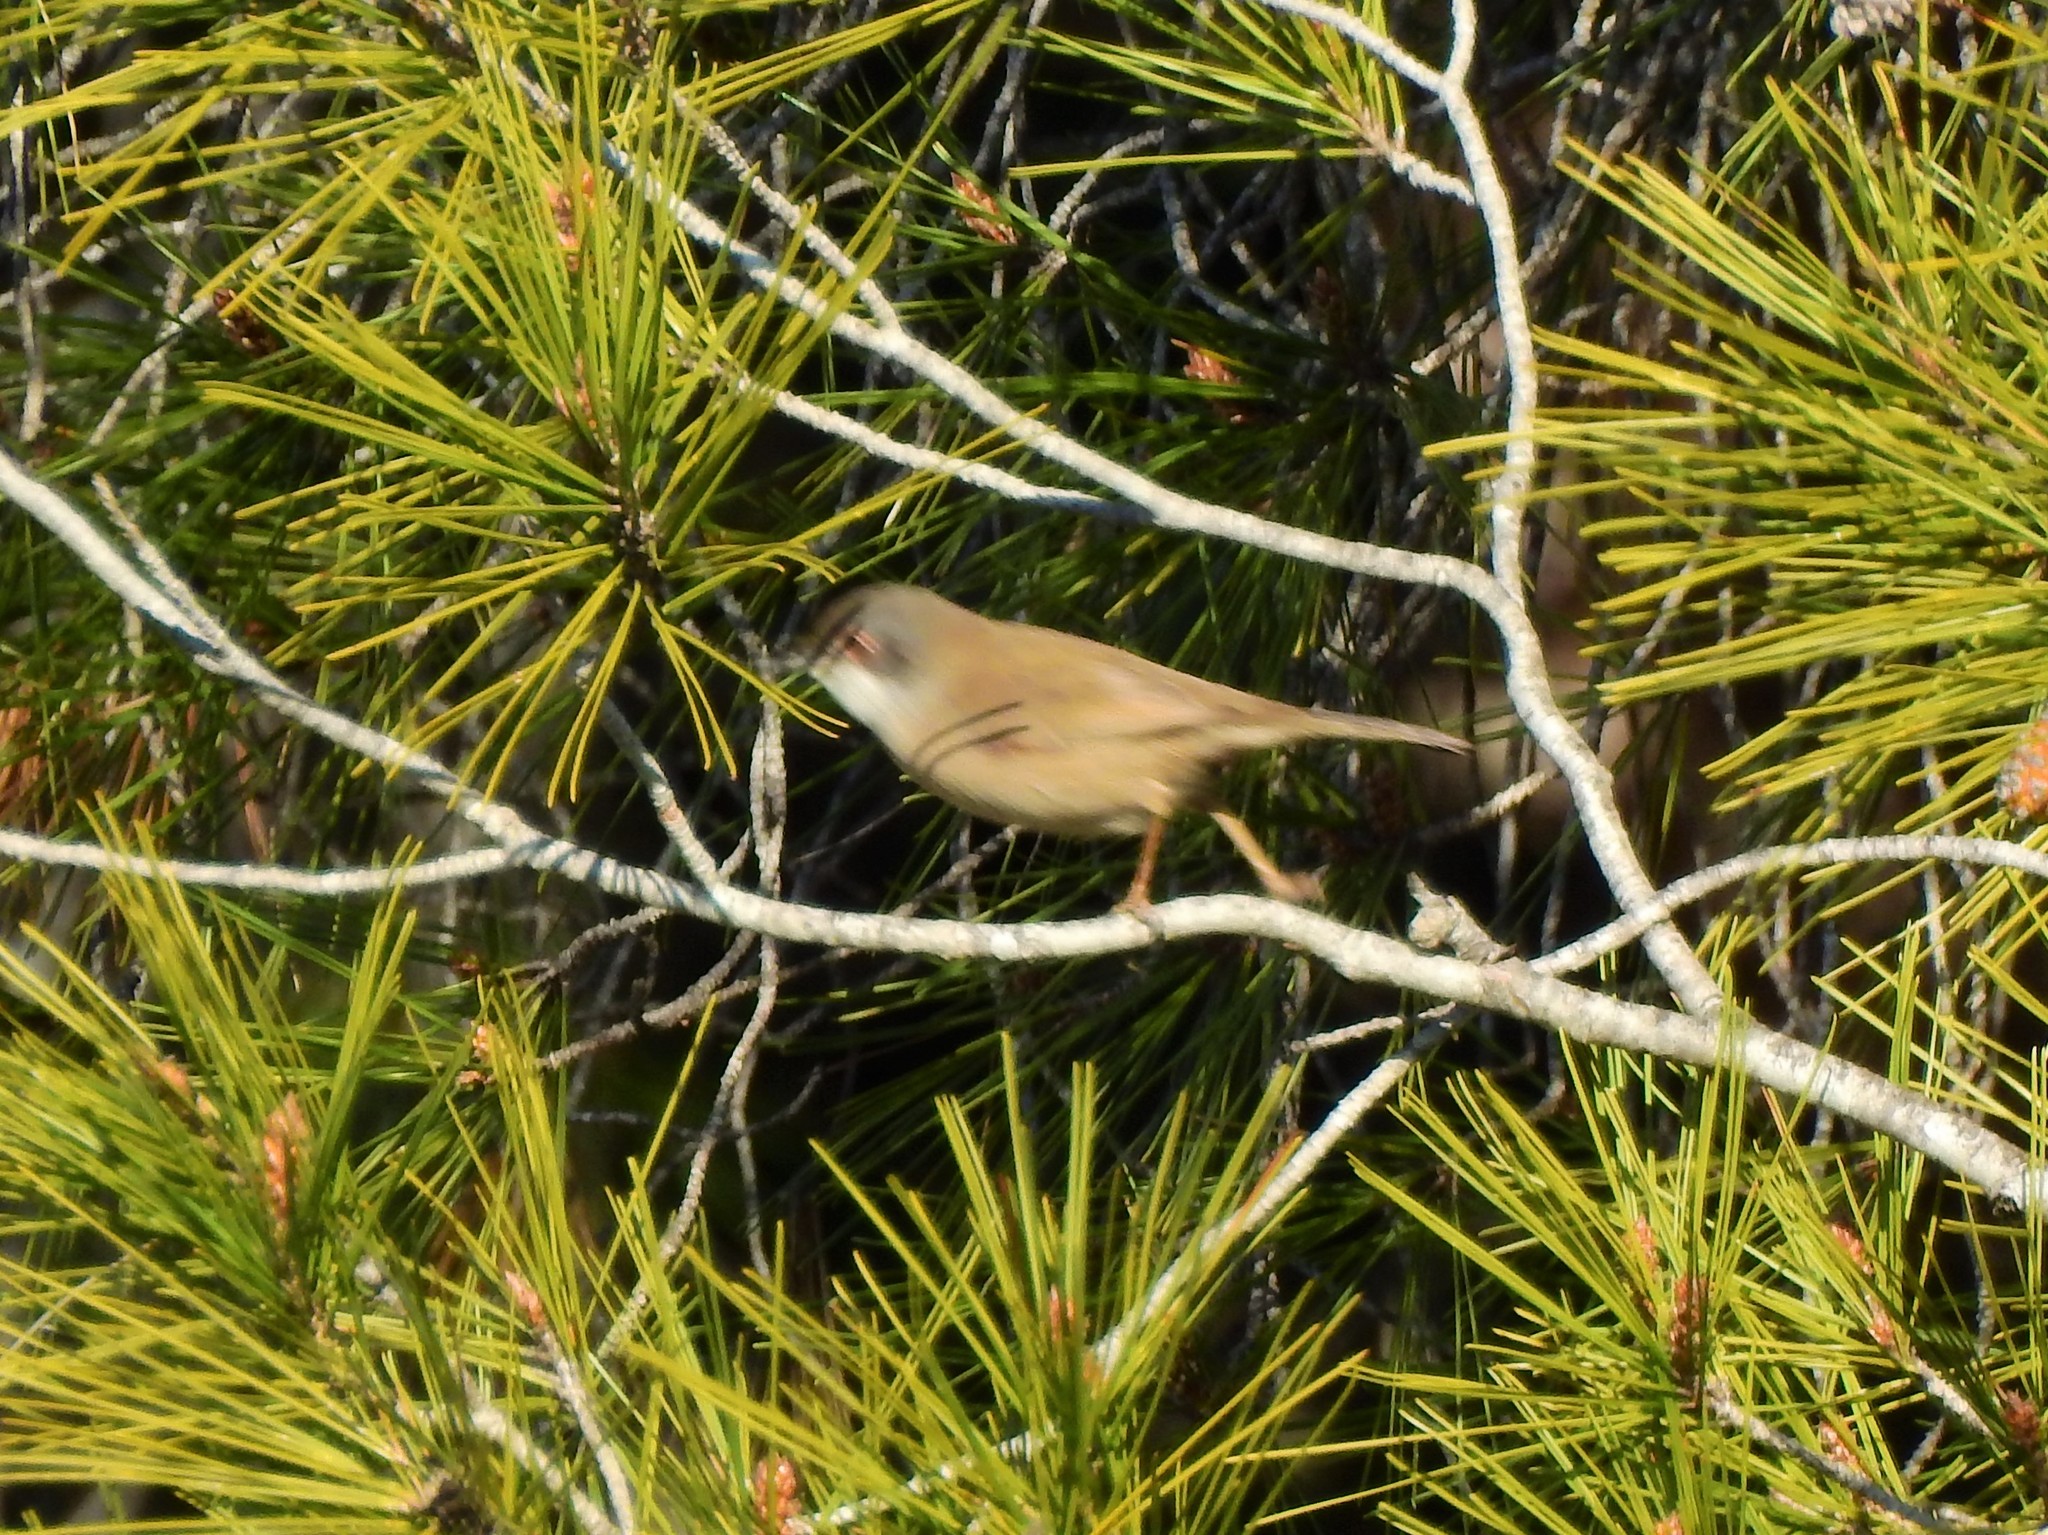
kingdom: Animalia
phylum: Chordata
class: Aves
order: Passeriformes
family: Sylviidae
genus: Curruca
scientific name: Curruca melanocephala
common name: Sardinian warbler
